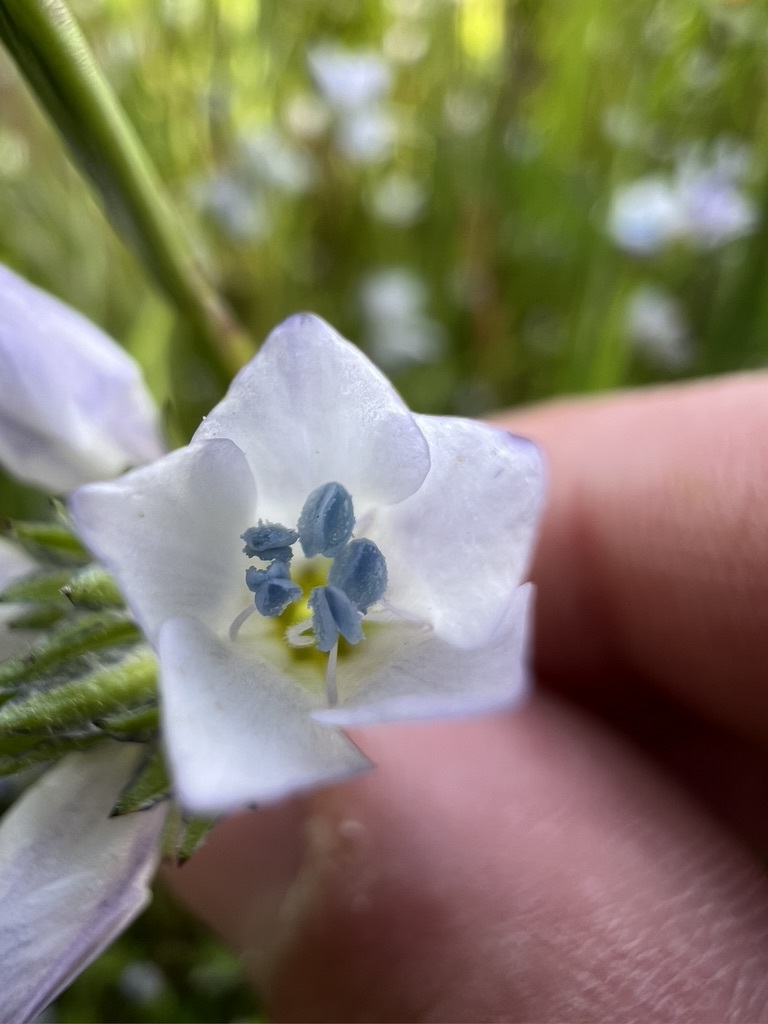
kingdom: Plantae
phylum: Tracheophyta
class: Magnoliopsida
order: Ericales
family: Polemoniaceae
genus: Gilia
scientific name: Gilia angelensis
